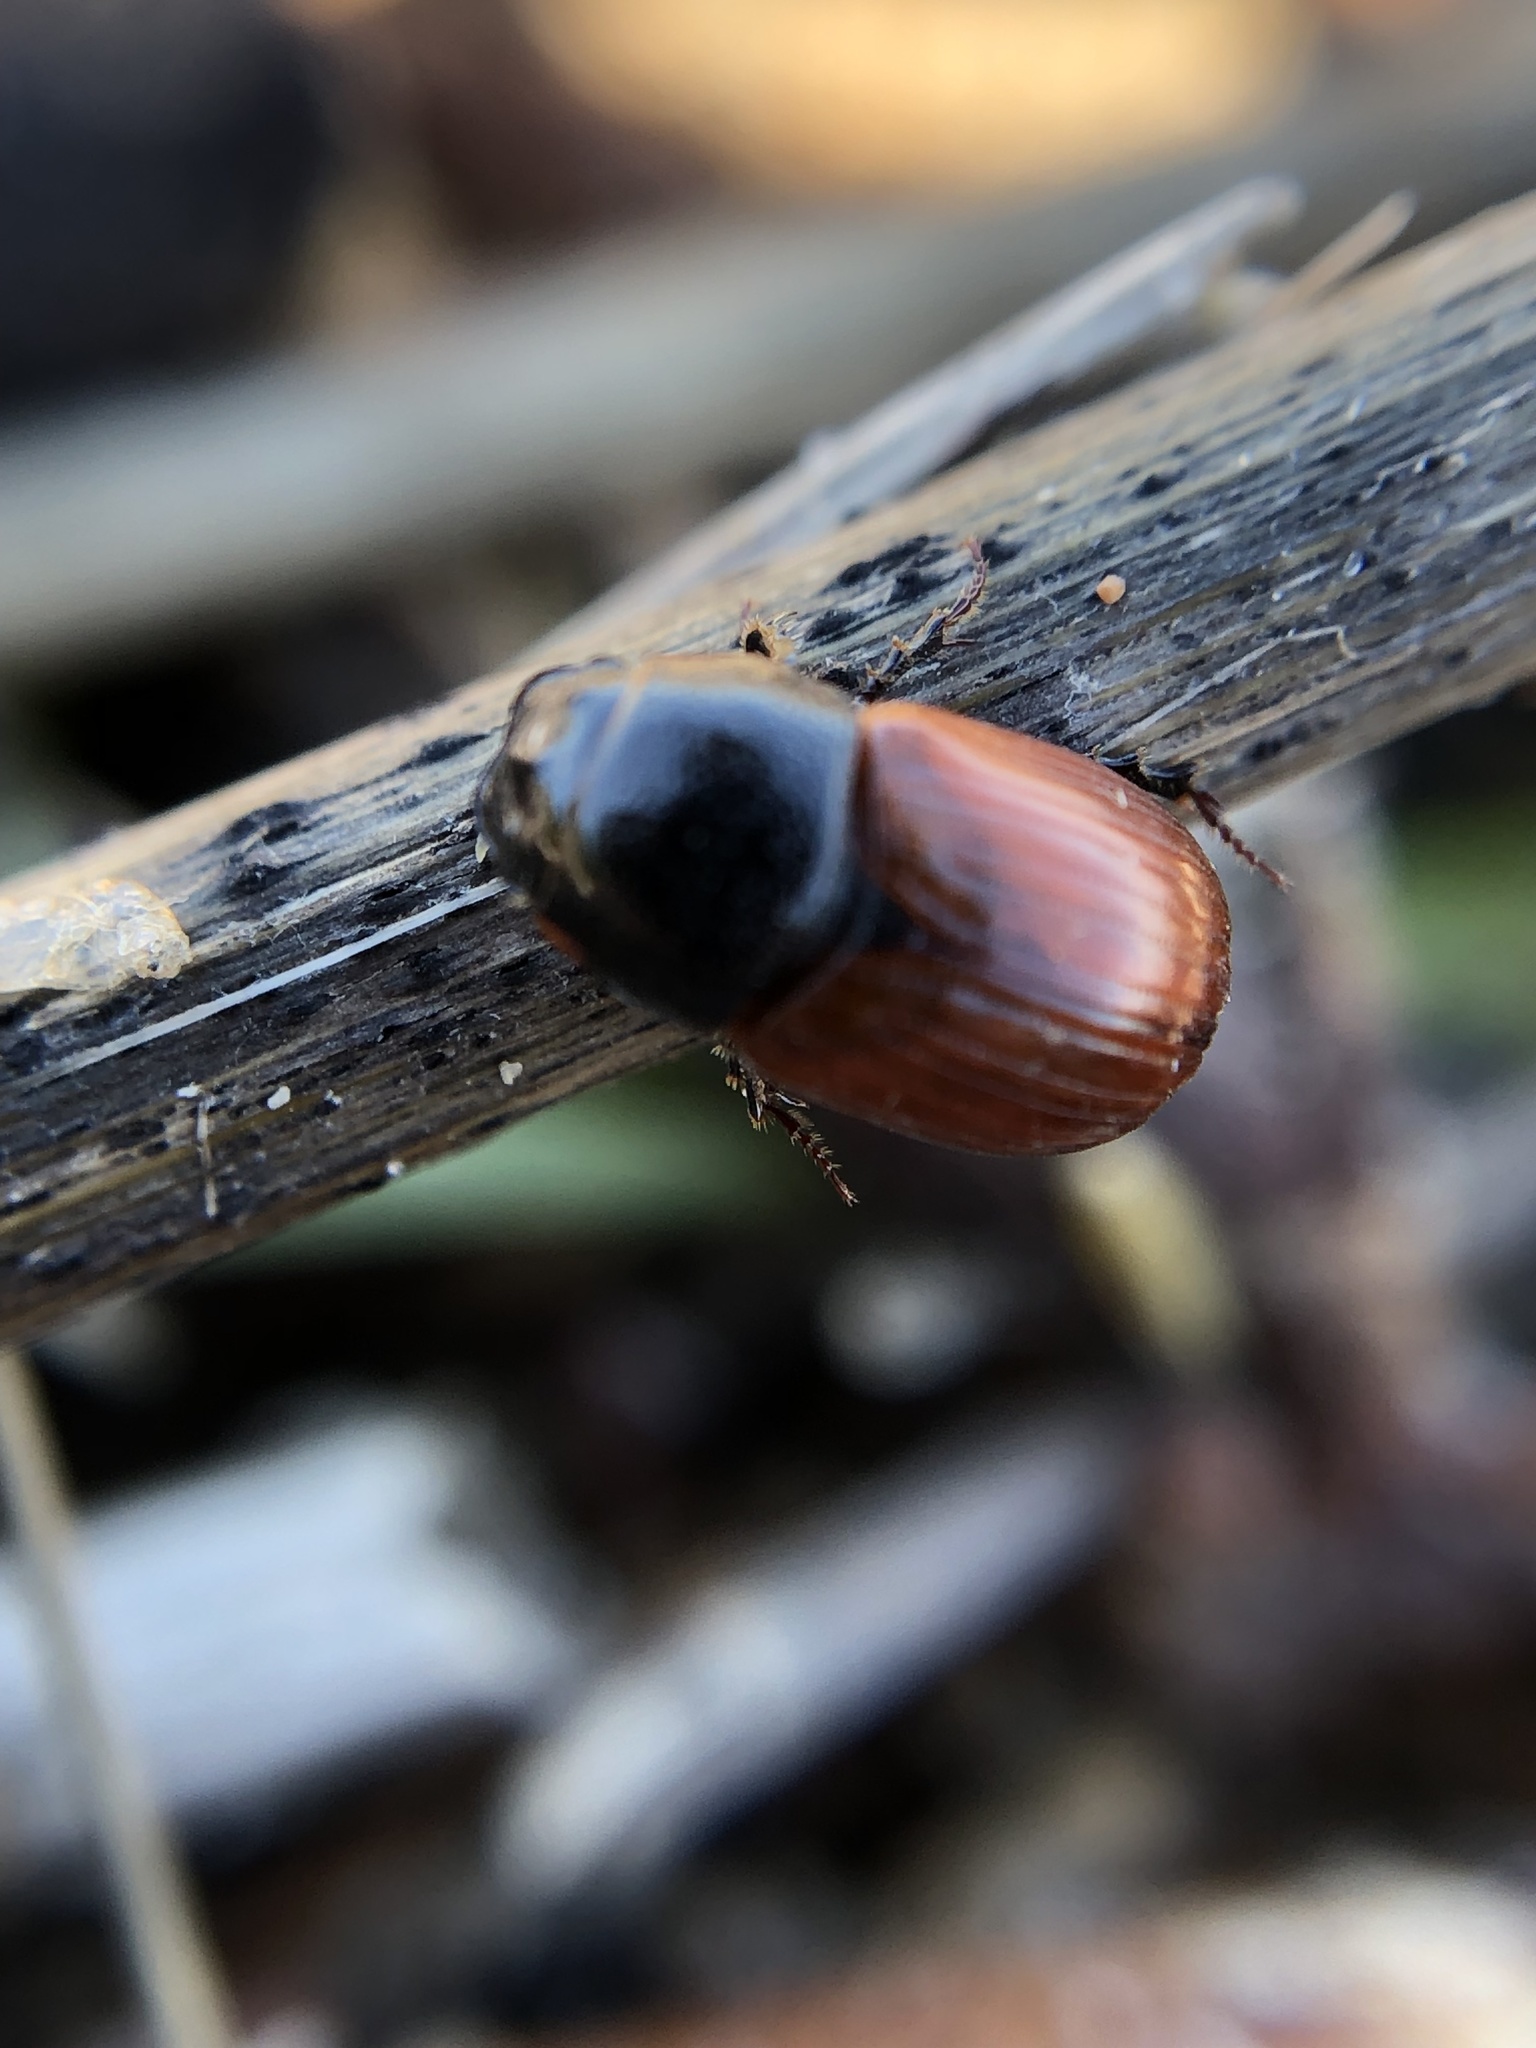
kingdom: Animalia
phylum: Arthropoda
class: Insecta
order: Coleoptera
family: Scarabaeidae
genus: Aphodius
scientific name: Aphodius pedellus
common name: Common dung beetle
